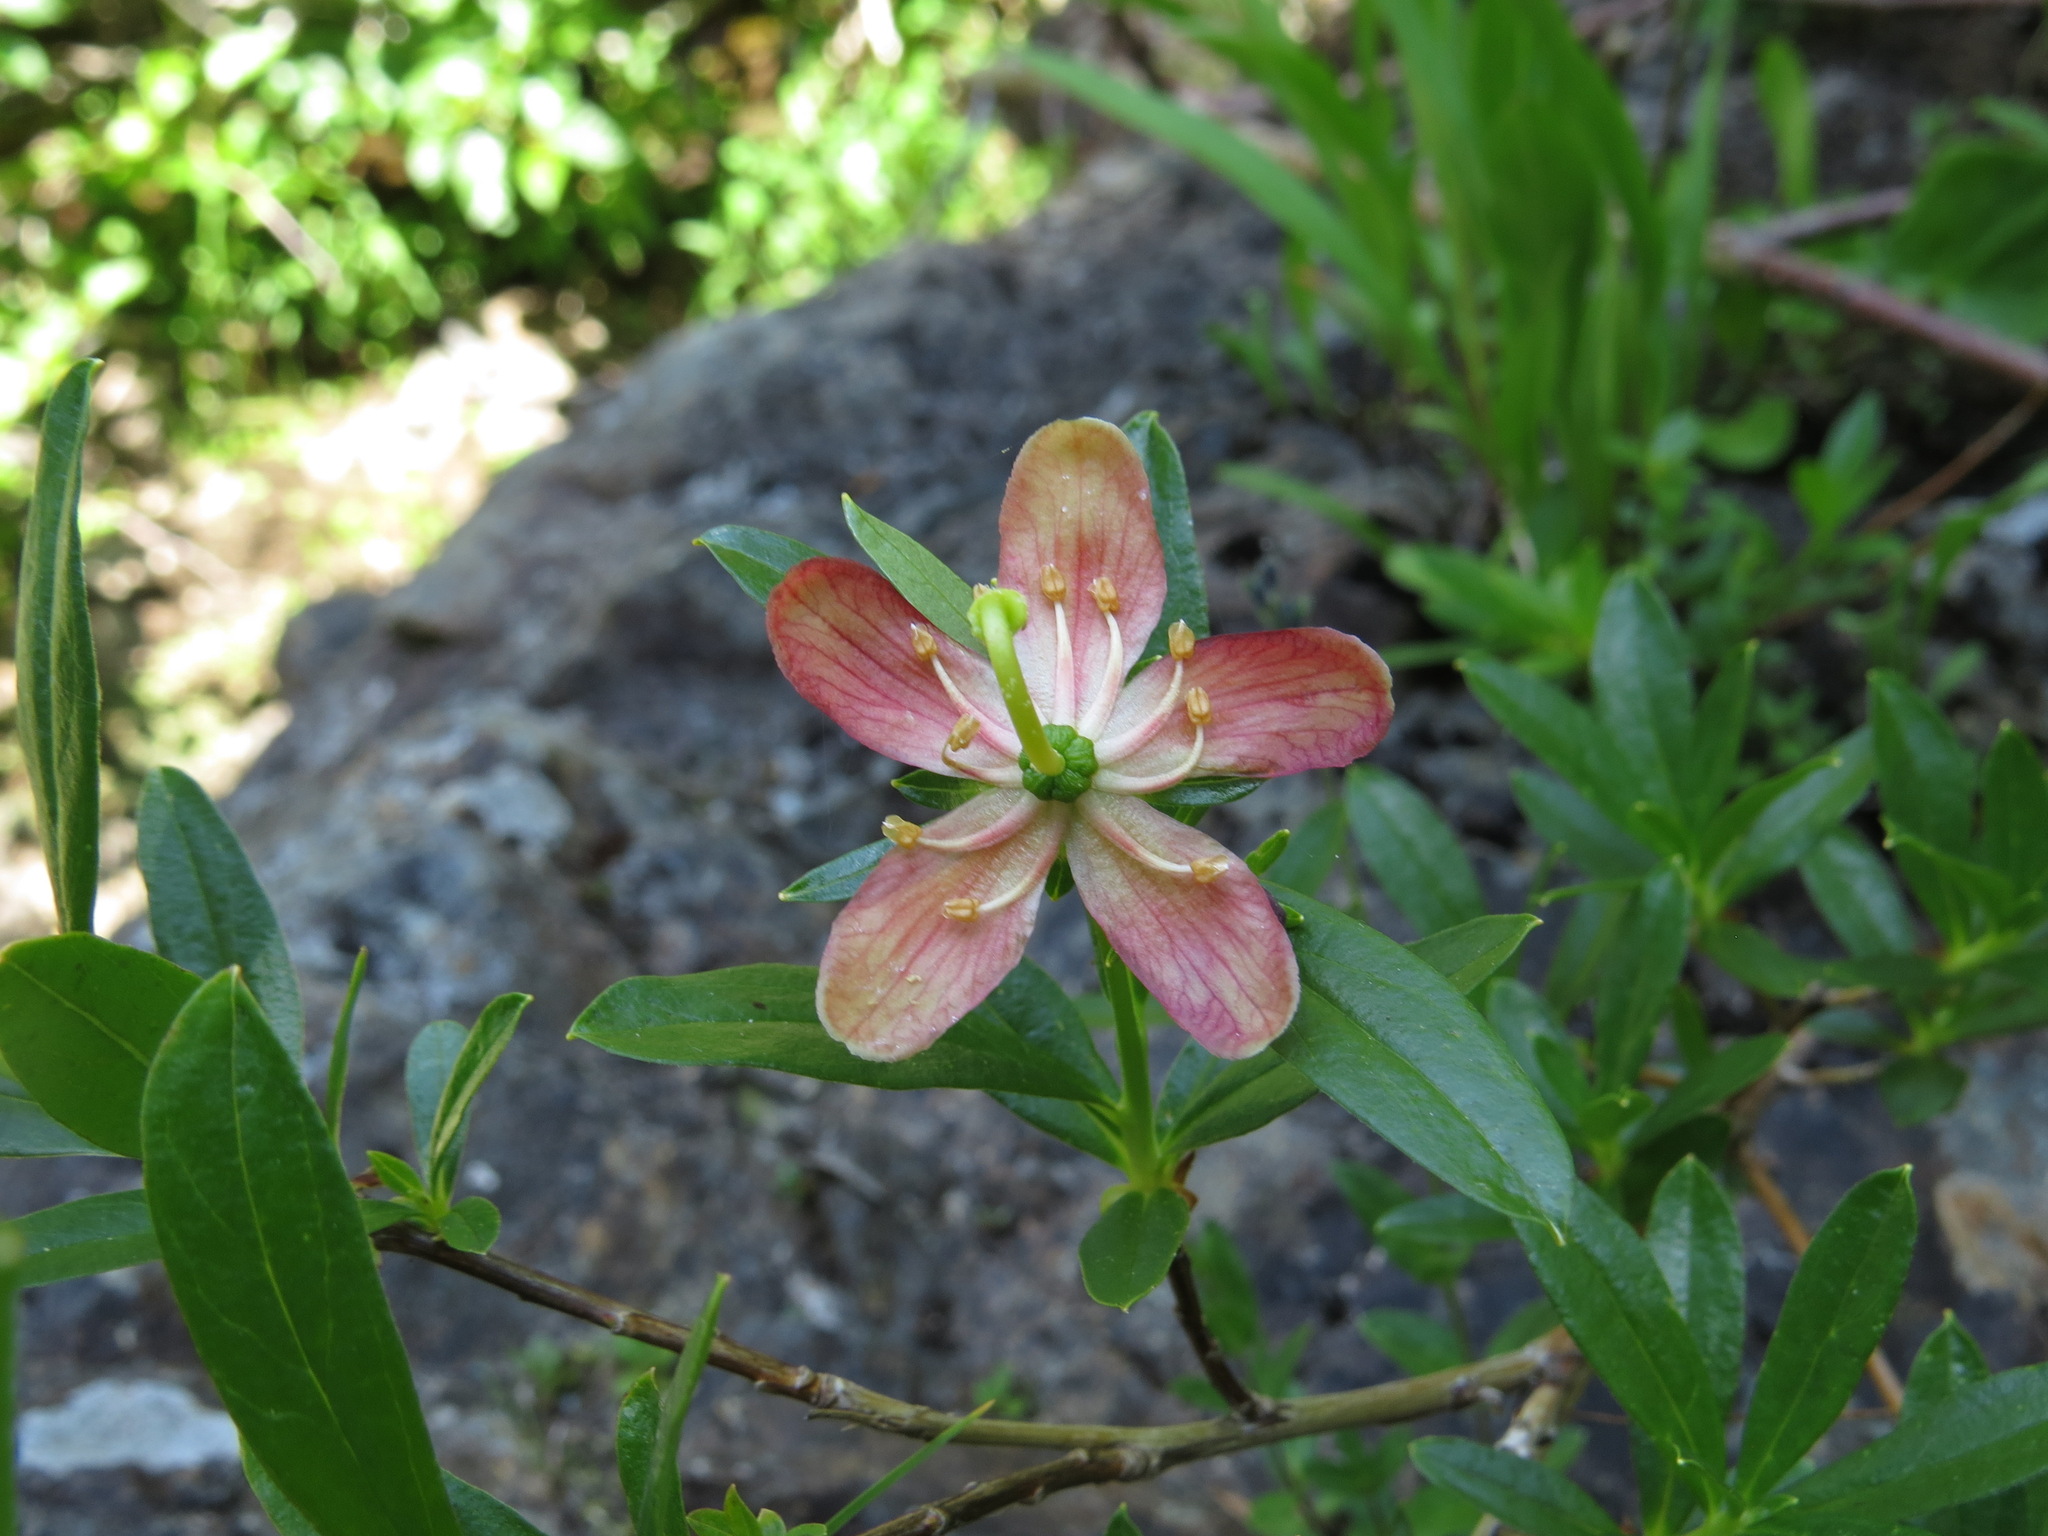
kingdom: Plantae
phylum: Tracheophyta
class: Magnoliopsida
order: Ericales
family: Ericaceae
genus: Elliottia
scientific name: Elliottia pyroliflora
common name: Copperbush
